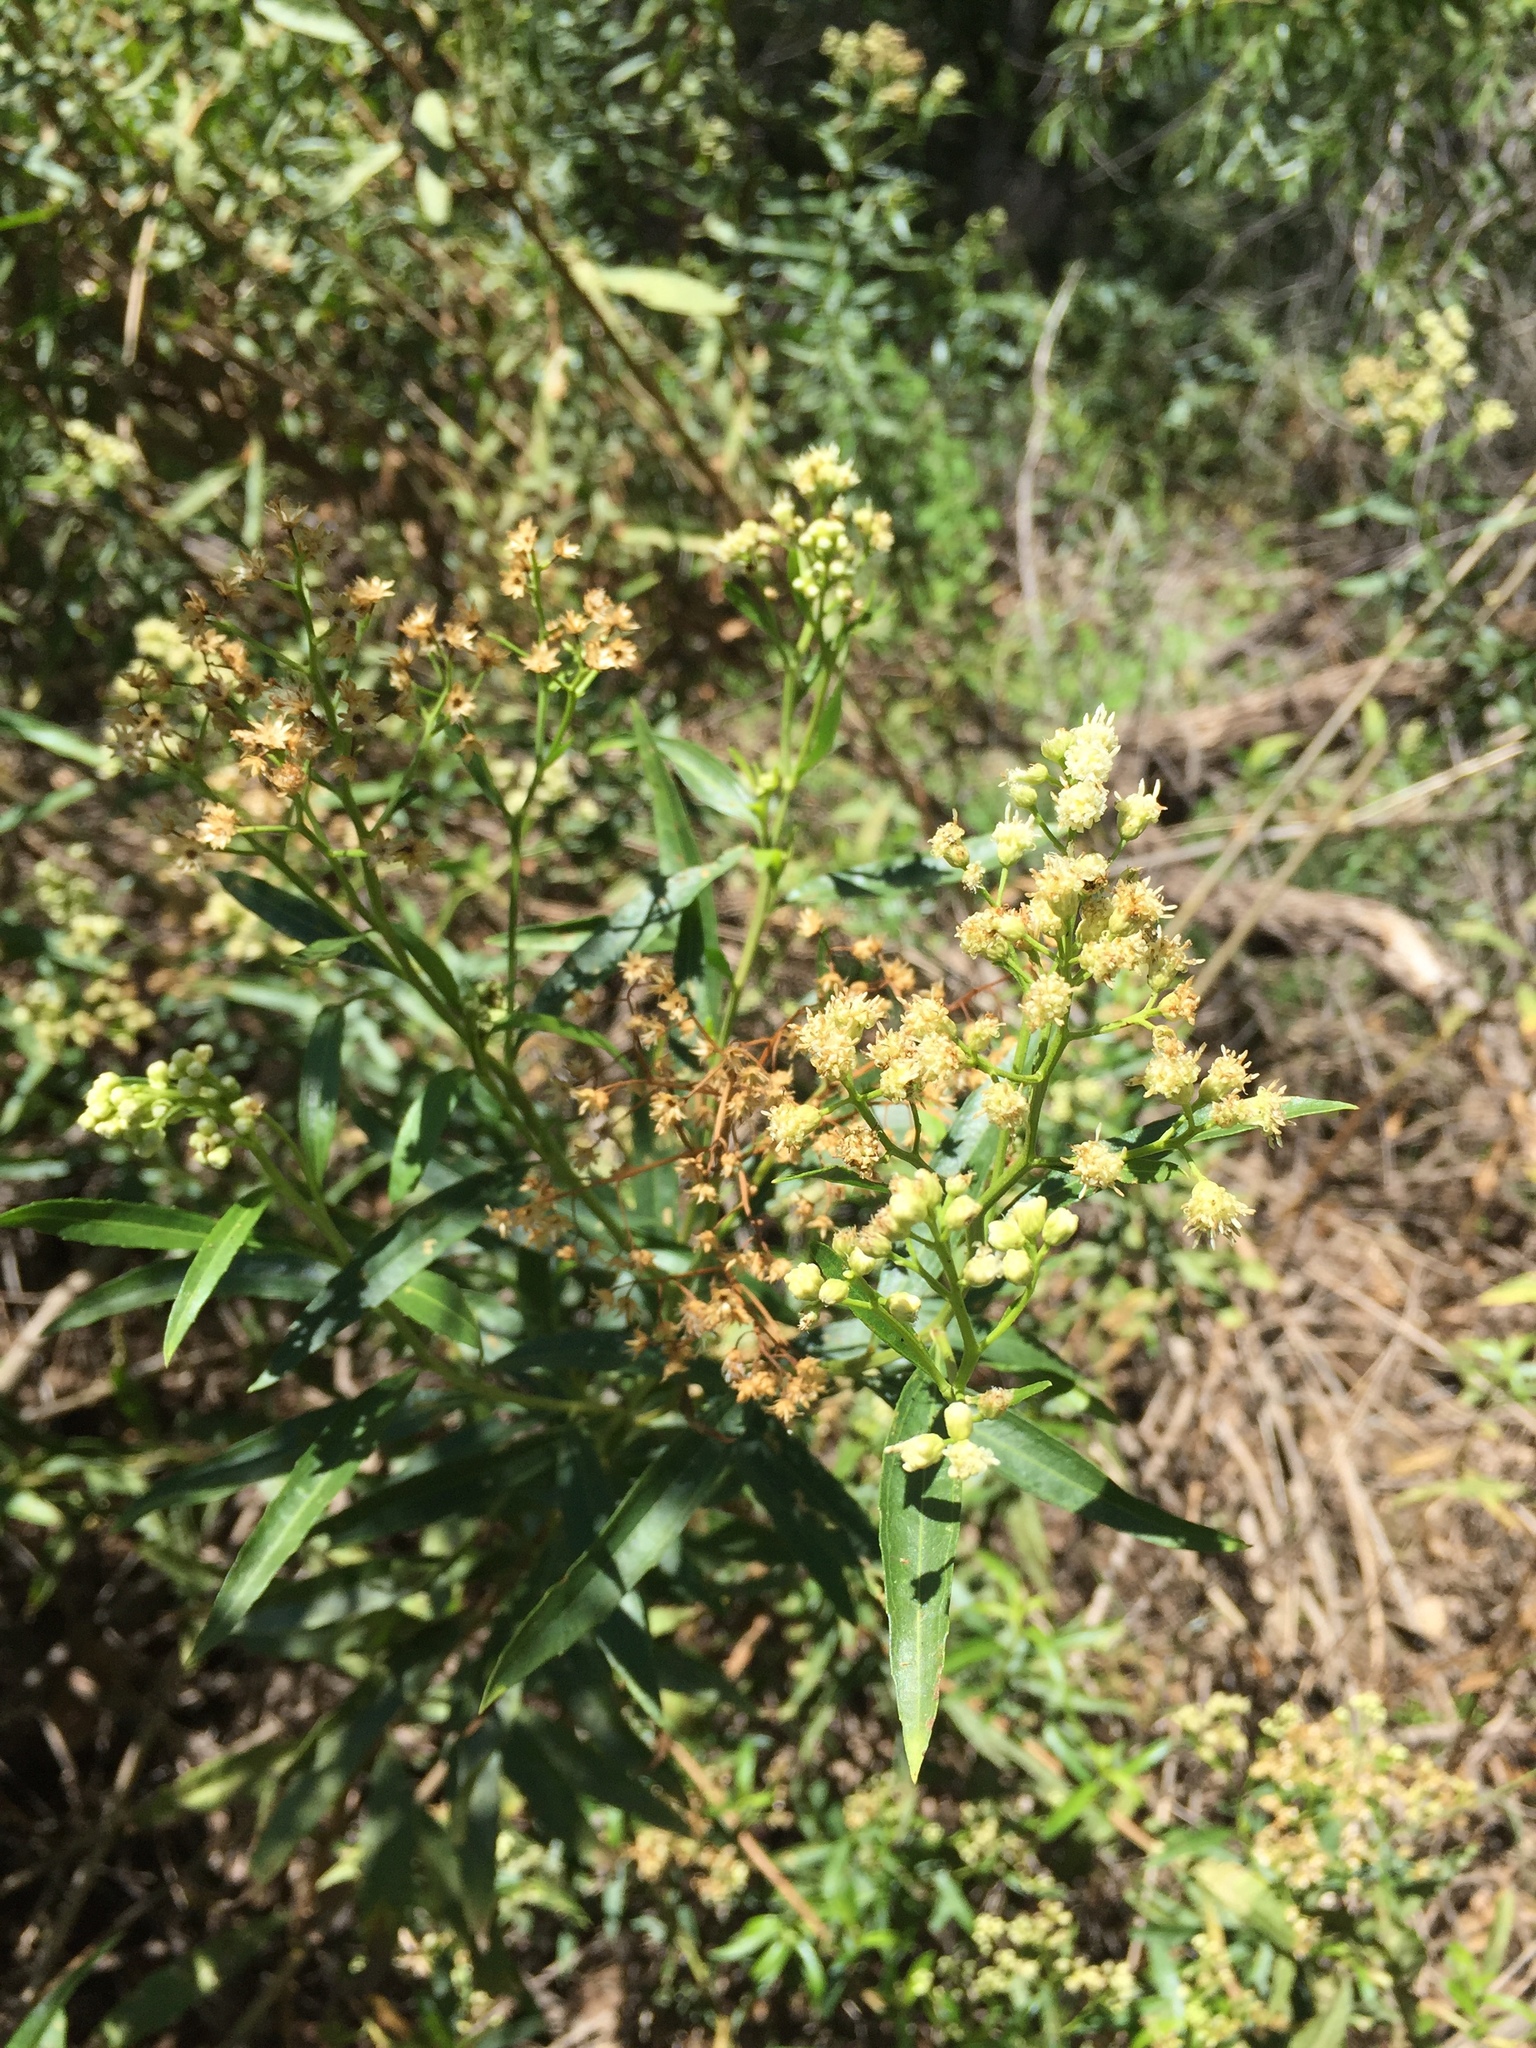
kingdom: Plantae
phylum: Tracheophyta
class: Magnoliopsida
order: Asterales
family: Asteraceae
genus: Baccharis
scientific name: Baccharis salicifolia
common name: Sticky baccharis
